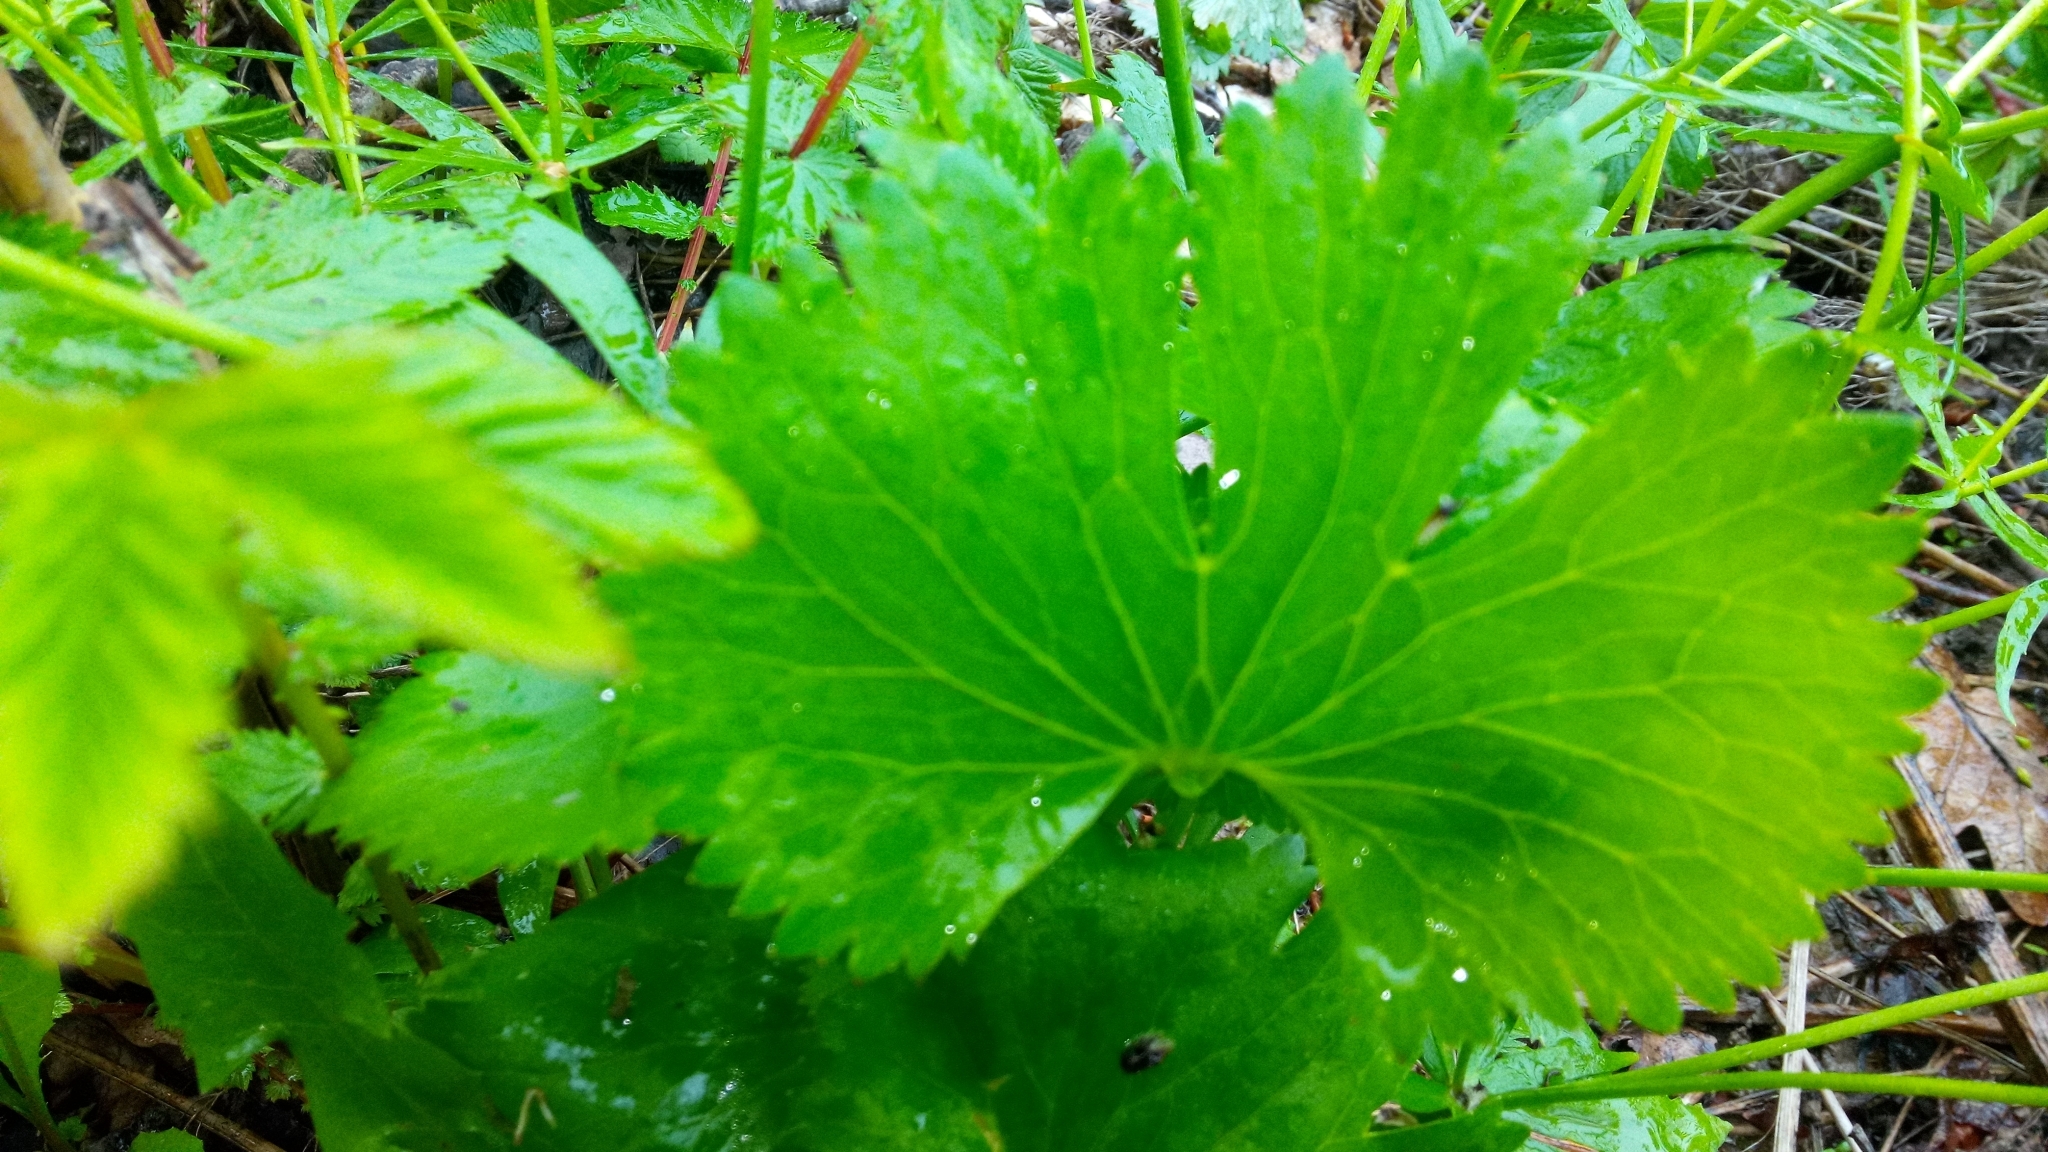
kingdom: Plantae
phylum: Tracheophyta
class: Magnoliopsida
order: Ranunculales
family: Ranunculaceae
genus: Ranunculus
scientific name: Ranunculus cassubicus
